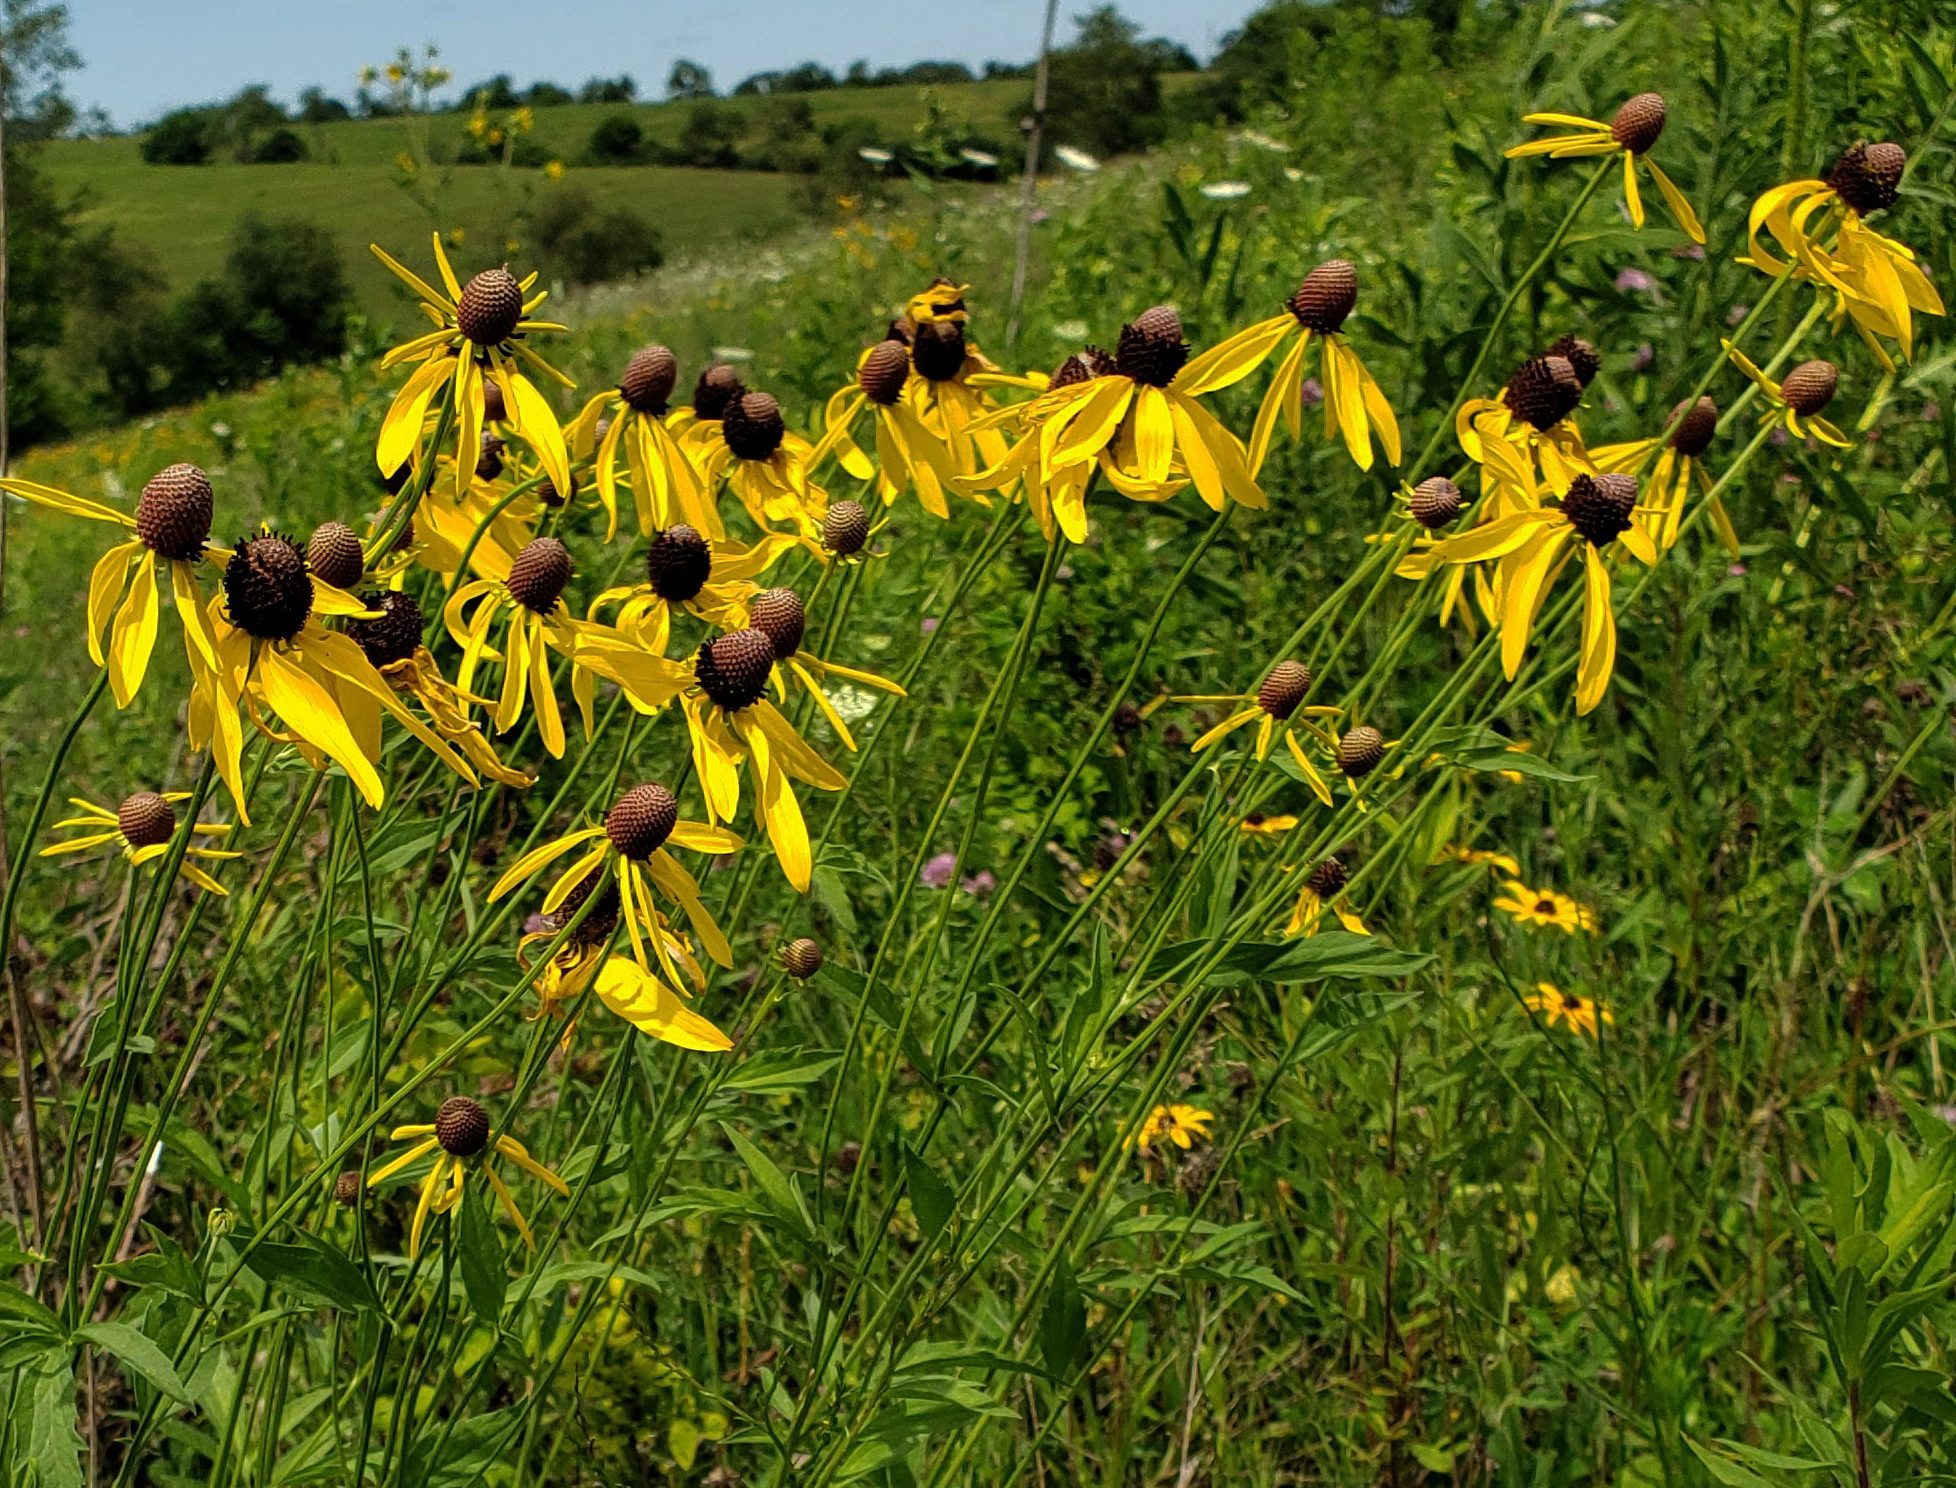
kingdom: Plantae
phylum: Tracheophyta
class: Magnoliopsida
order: Asterales
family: Asteraceae
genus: Ratibida
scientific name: Ratibida pinnata
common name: Drooping prairie-coneflower
